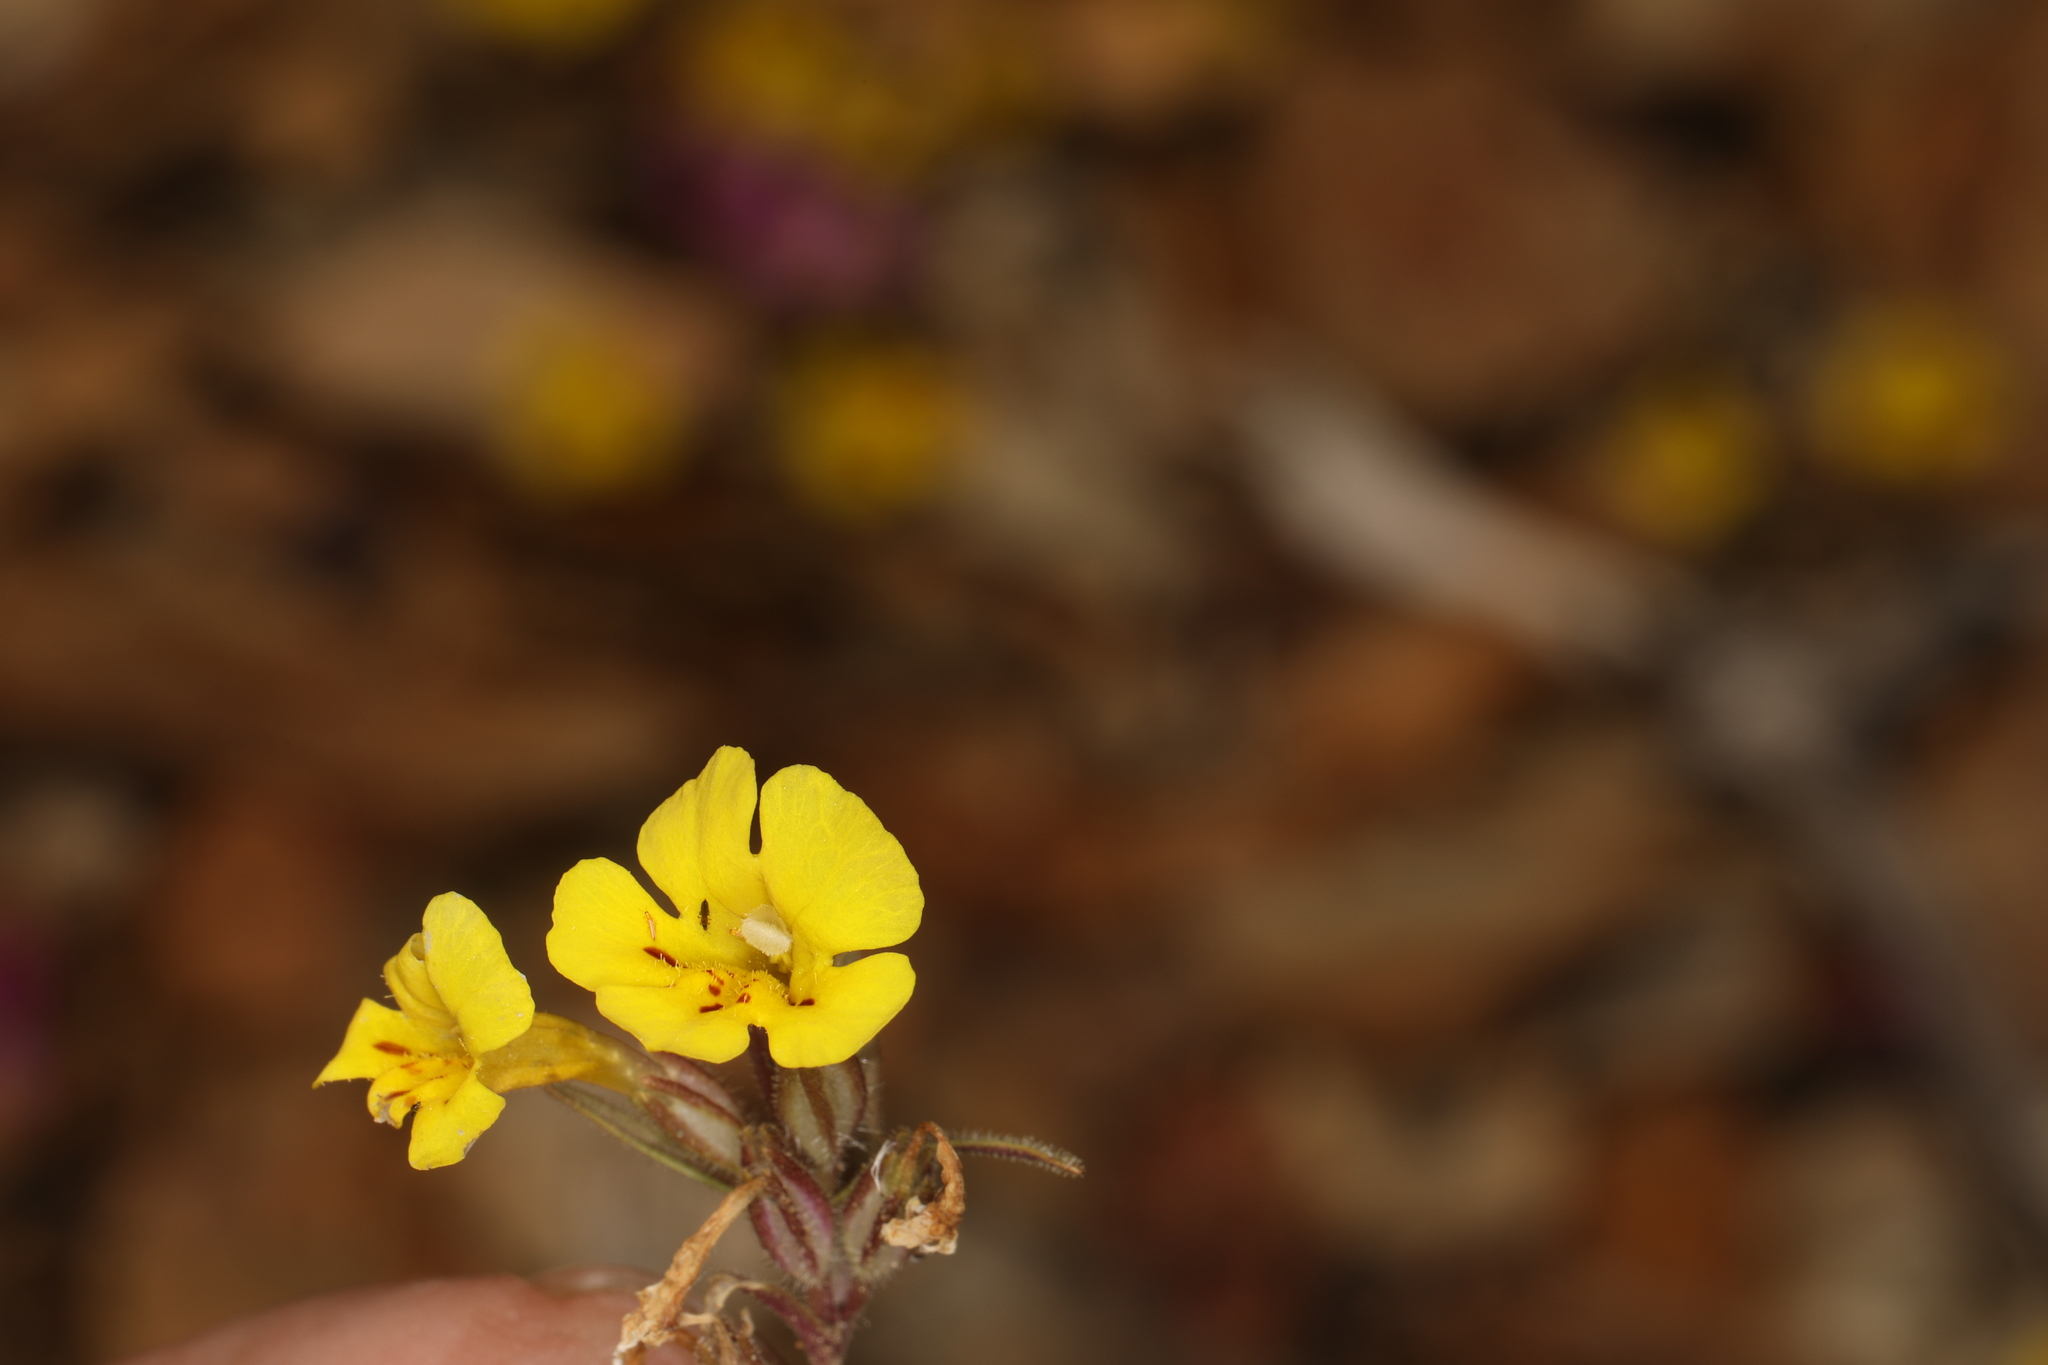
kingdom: Plantae
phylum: Tracheophyta
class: Magnoliopsida
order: Lamiales
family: Phrymaceae
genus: Diplacus
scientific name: Diplacus mephiticus
